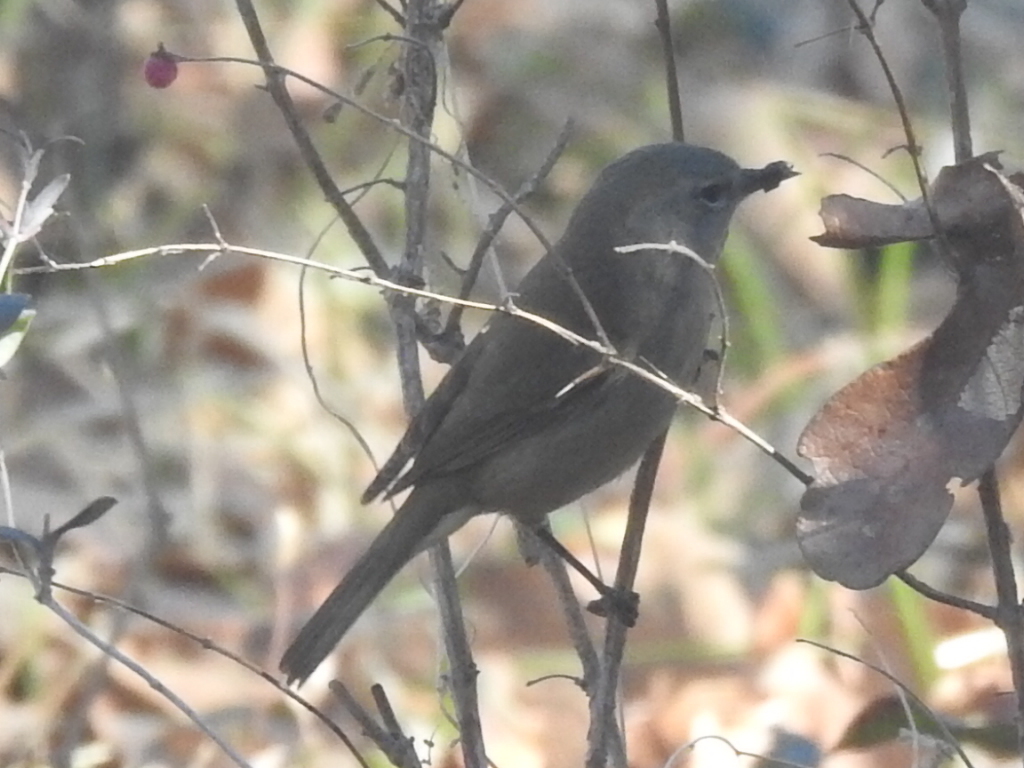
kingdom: Animalia
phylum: Chordata
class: Aves
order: Passeriformes
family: Parulidae
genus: Leiothlypis
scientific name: Leiothlypis celata
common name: Orange-crowned warbler
